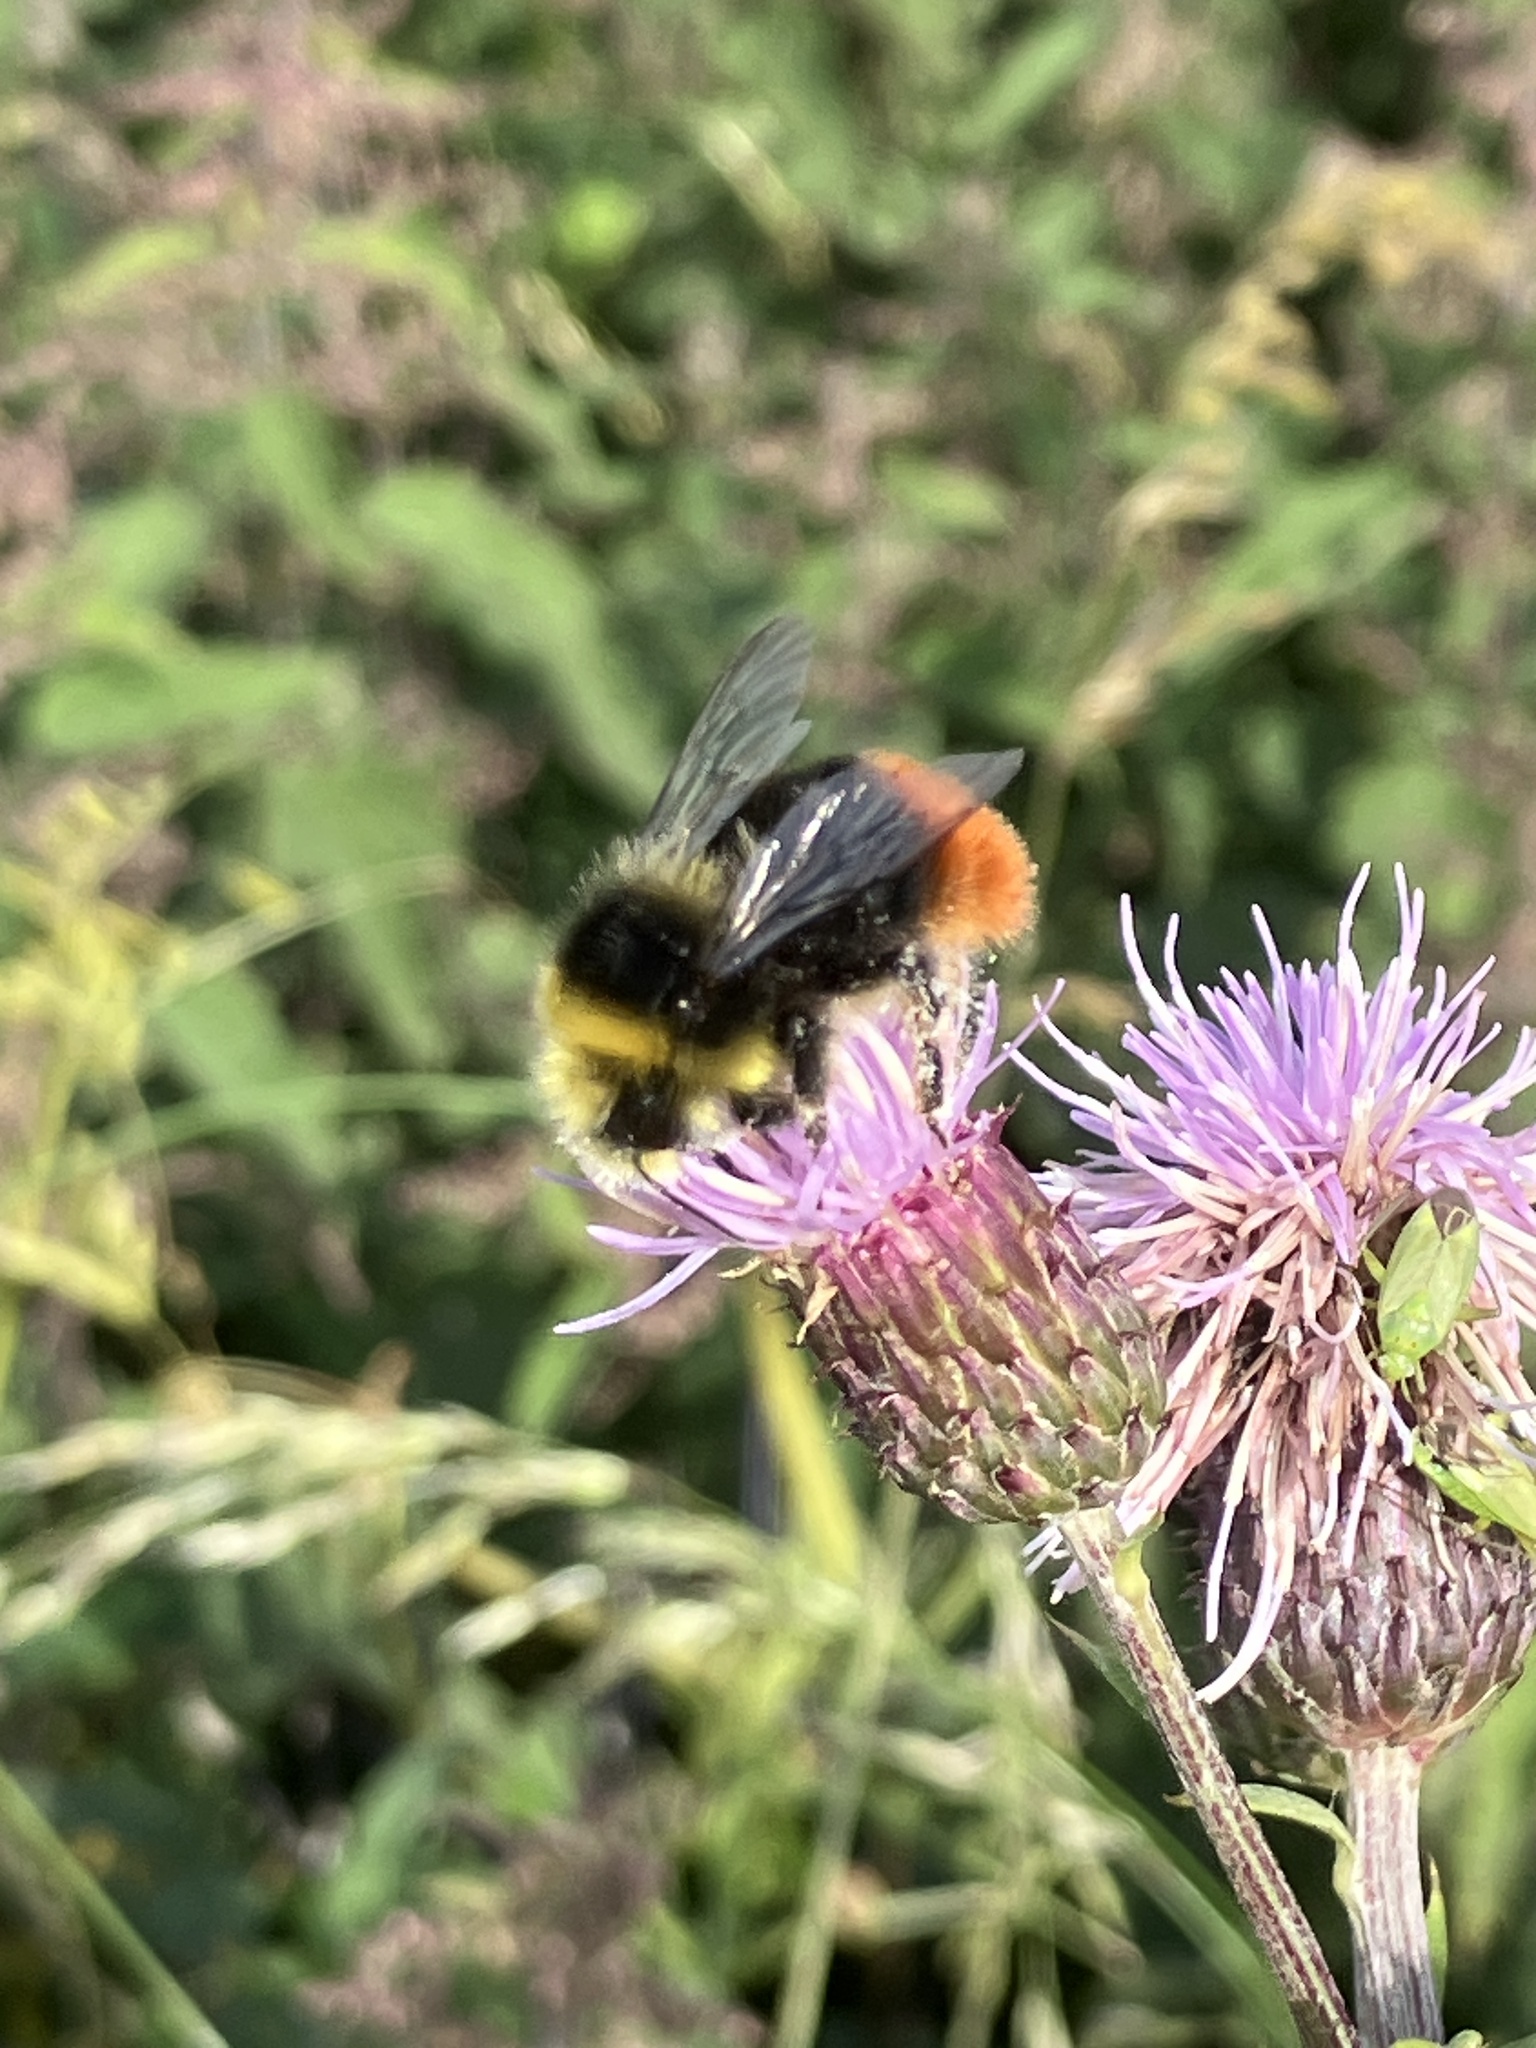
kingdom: Animalia
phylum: Arthropoda
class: Insecta
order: Hymenoptera
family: Apidae
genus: Bombus
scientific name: Bombus lapidarius
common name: Large red-tailed humble-bee
